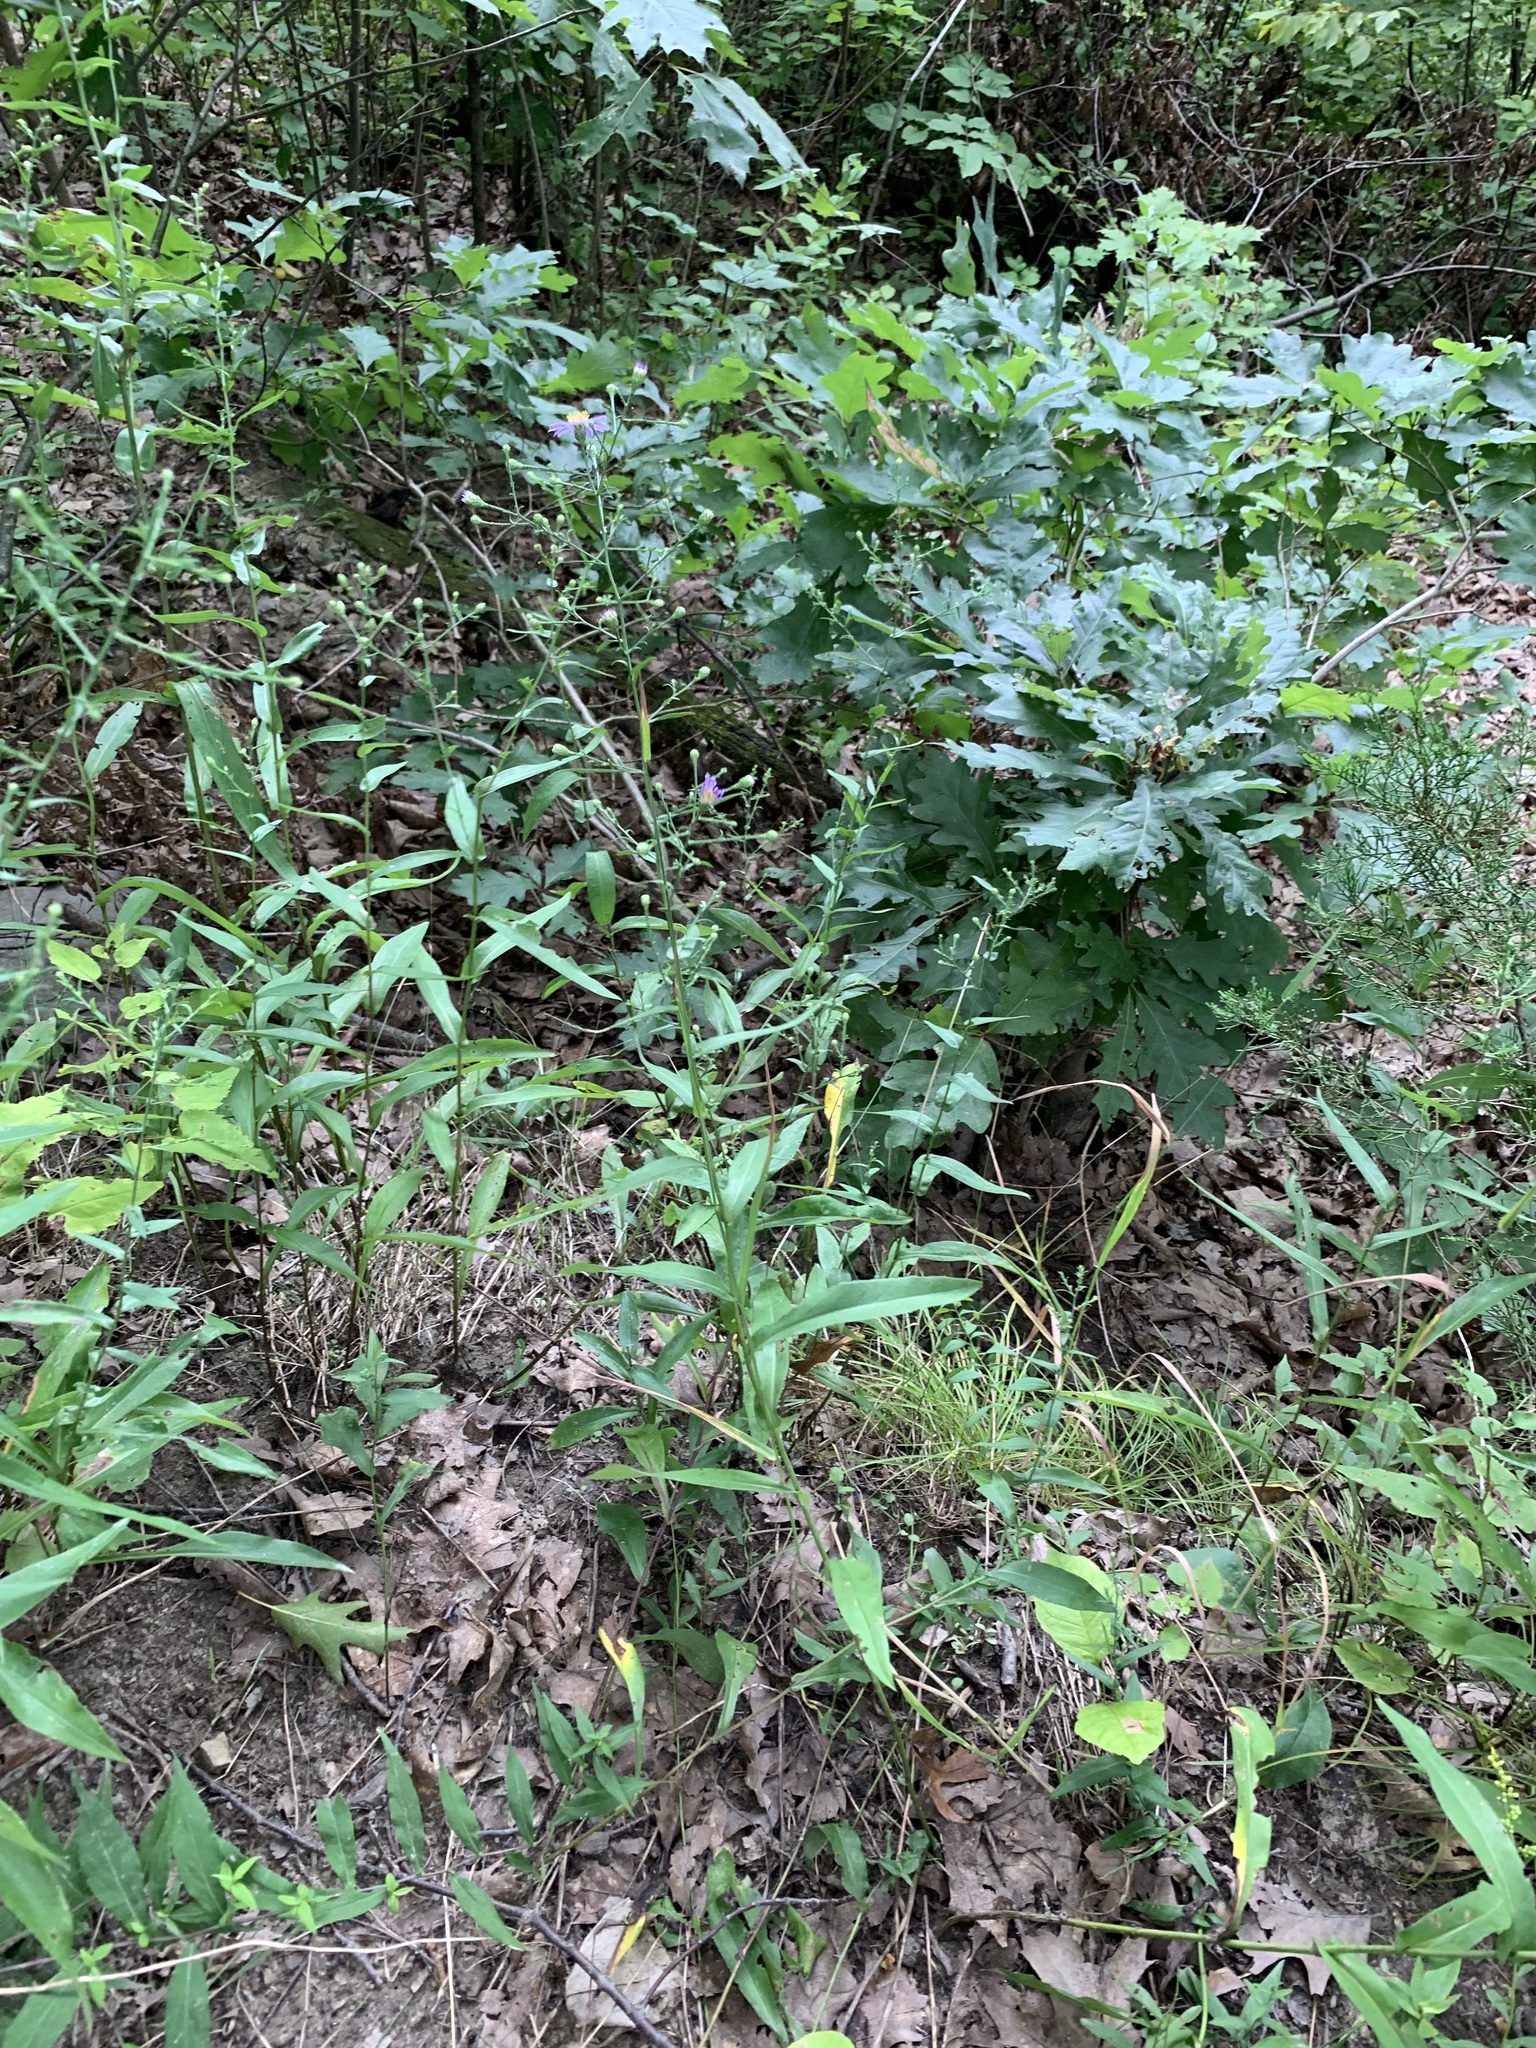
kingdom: Plantae
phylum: Tracheophyta
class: Magnoliopsida
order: Asterales
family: Asteraceae
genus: Symphyotrichum
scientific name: Symphyotrichum laeve
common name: Glaucous aster
